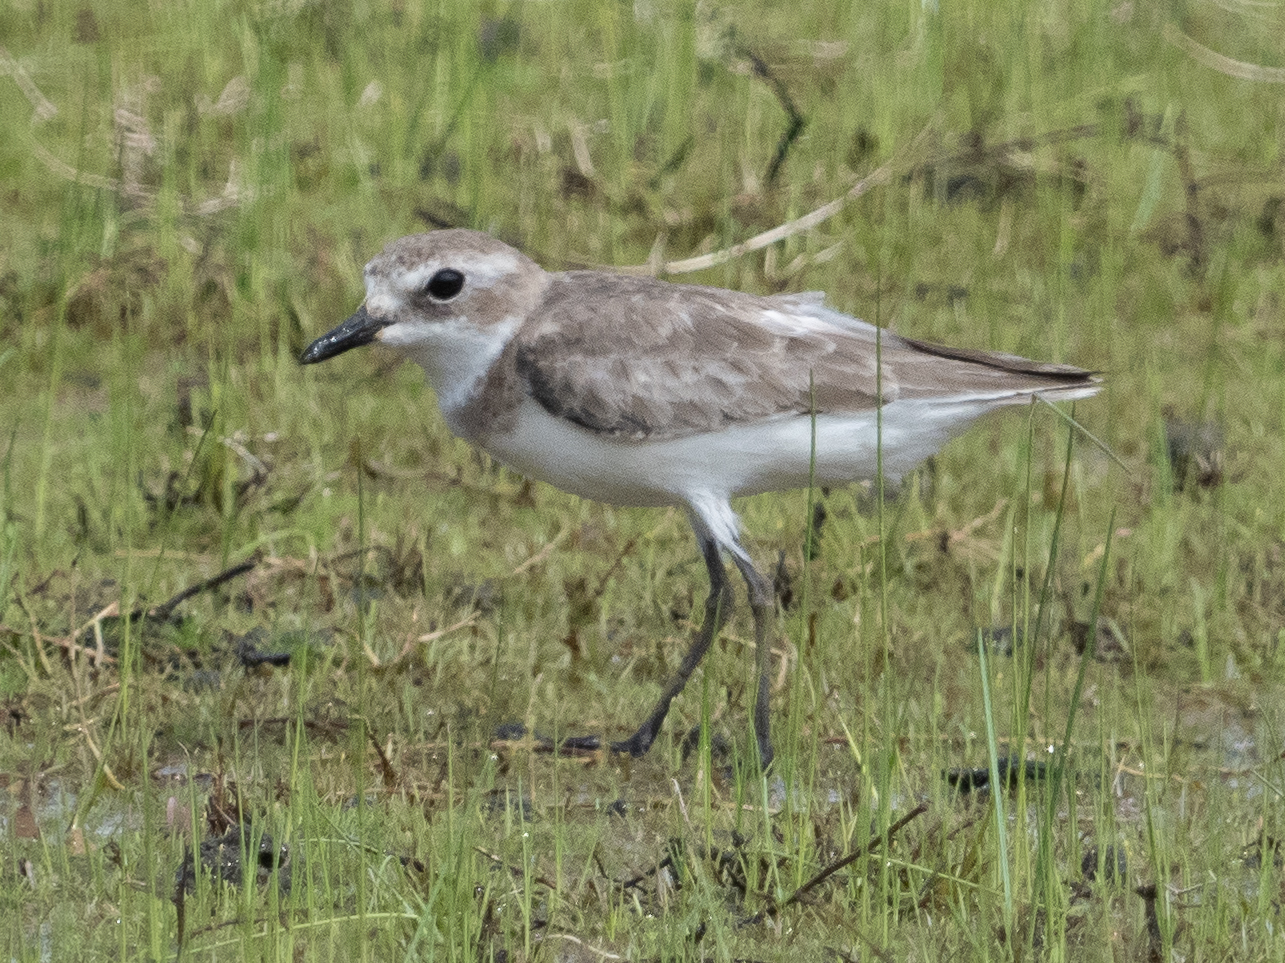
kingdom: Animalia
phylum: Chordata
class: Aves
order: Charadriiformes
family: Charadriidae
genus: Anarhynchus
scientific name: Anarhynchus
